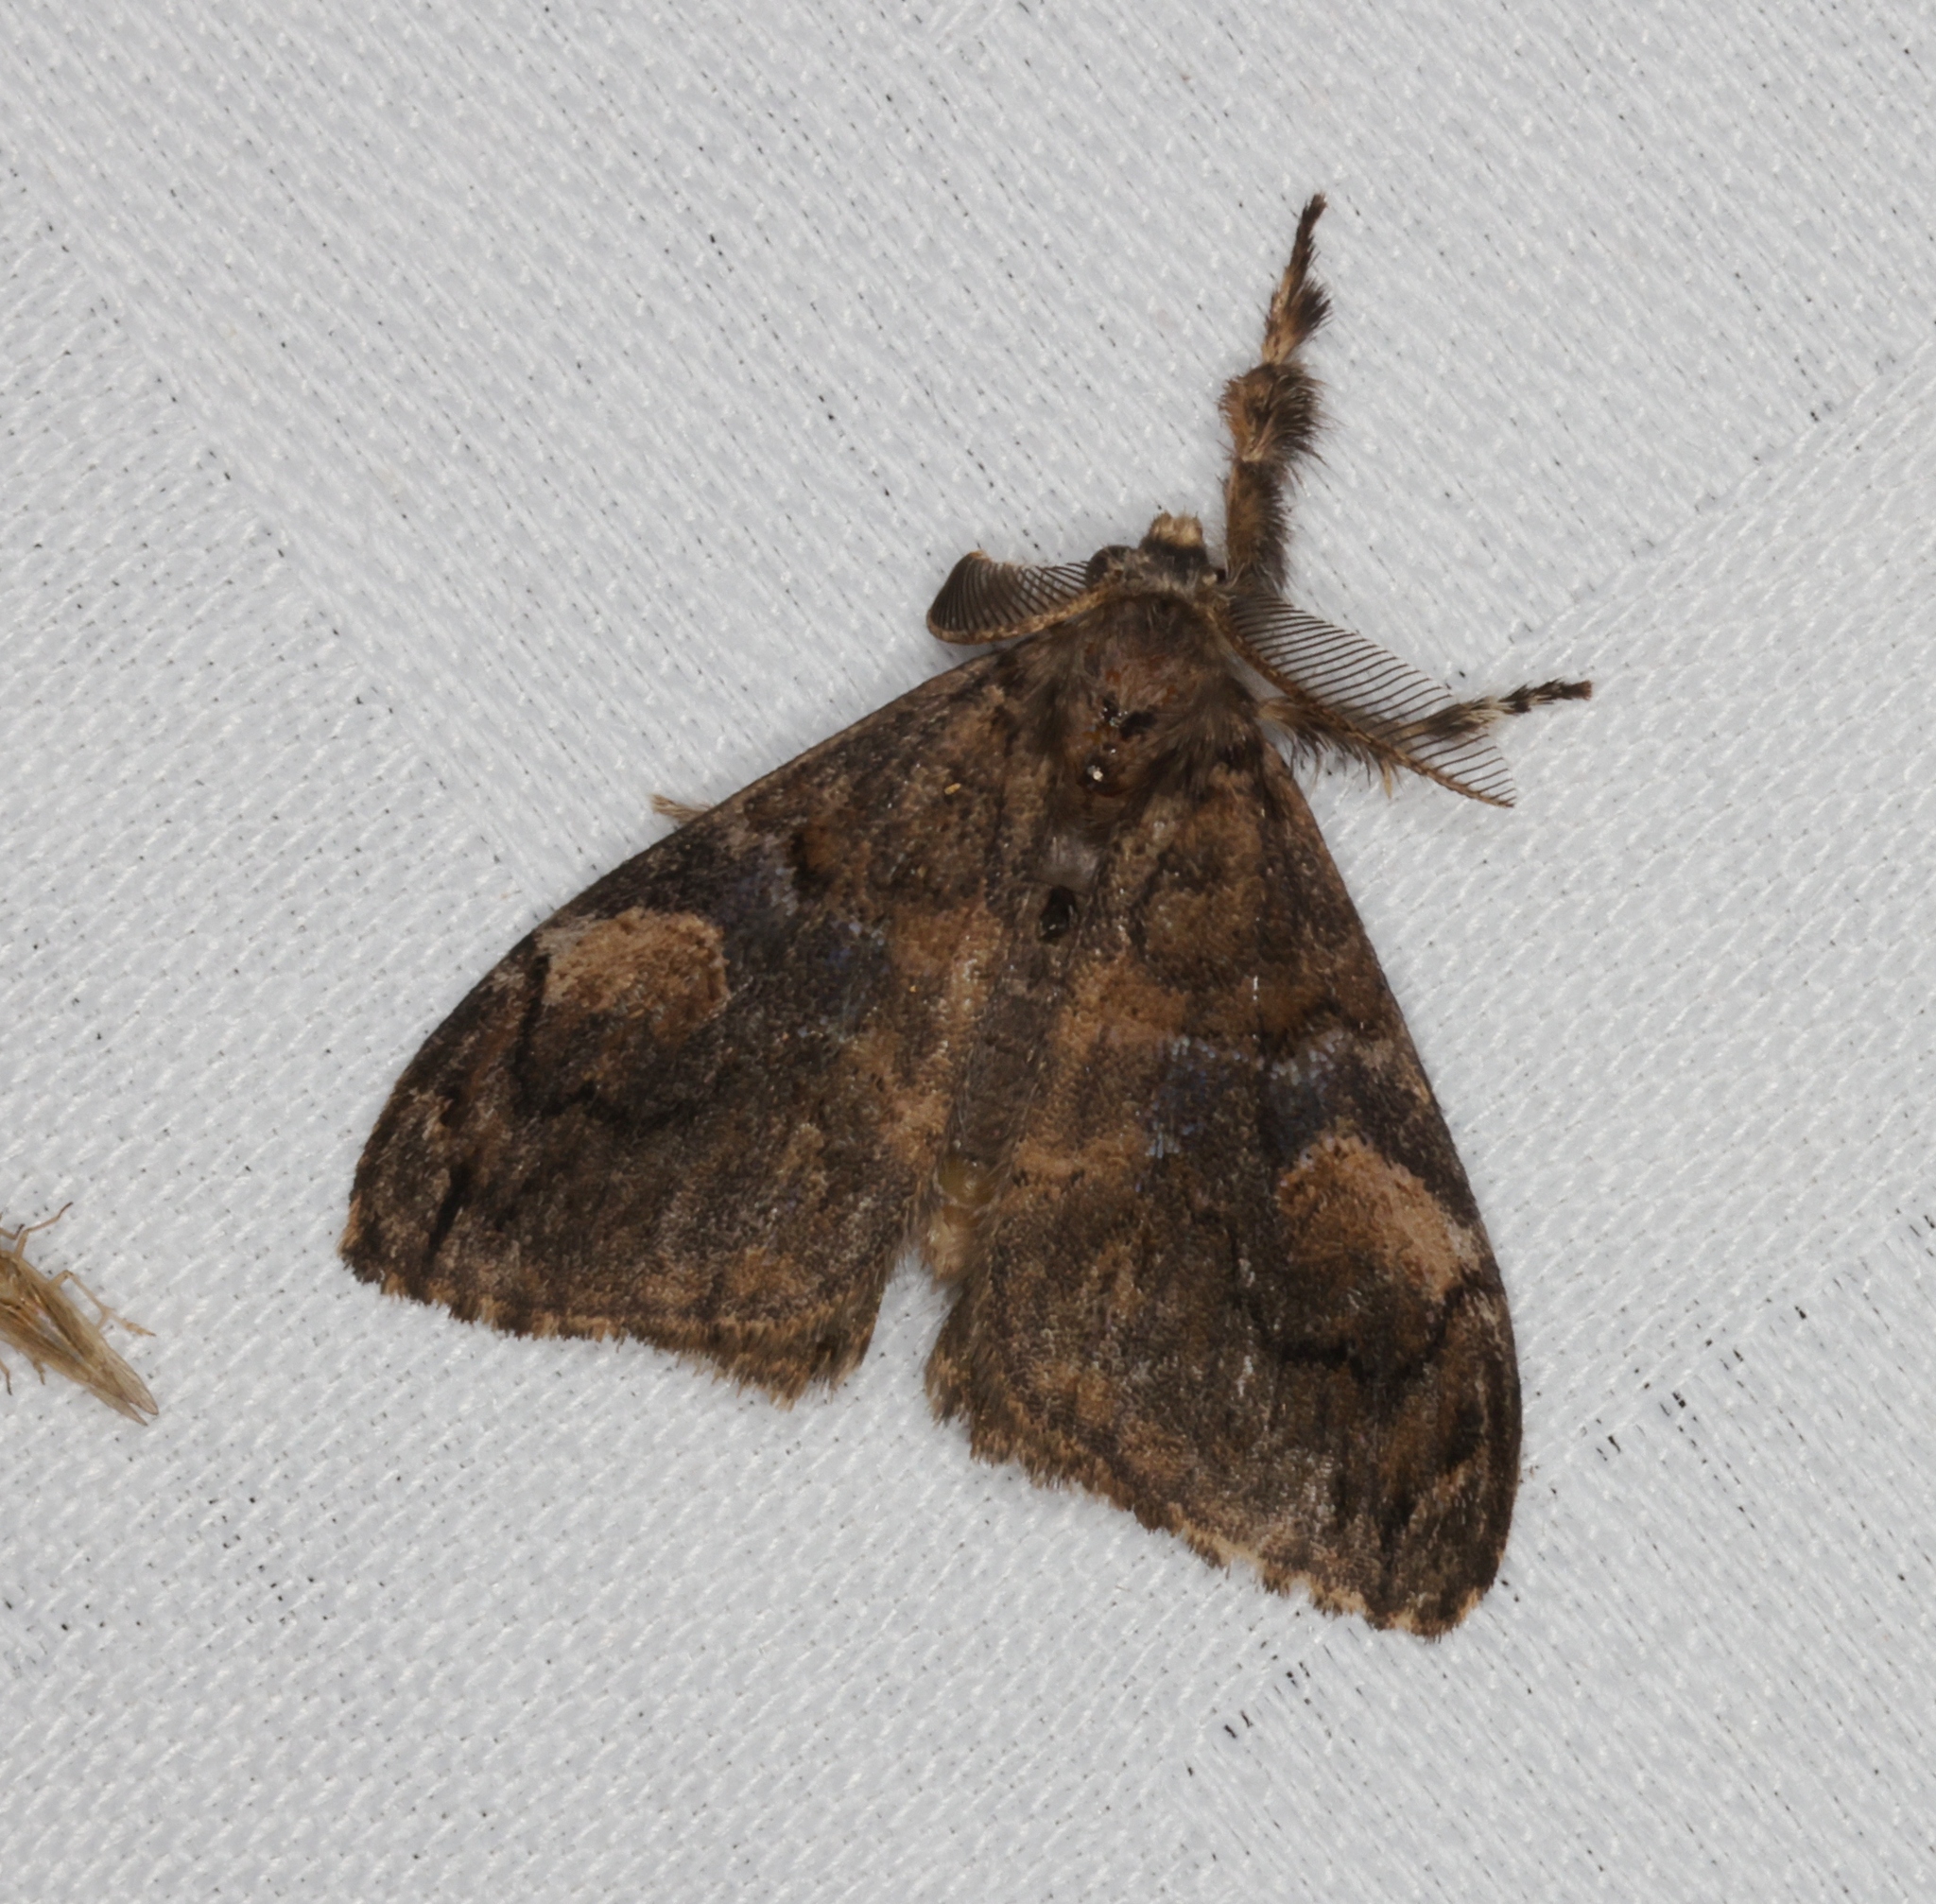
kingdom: Animalia
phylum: Arthropoda
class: Insecta
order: Lepidoptera
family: Erebidae
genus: Orgyia
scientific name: Orgyia postica
